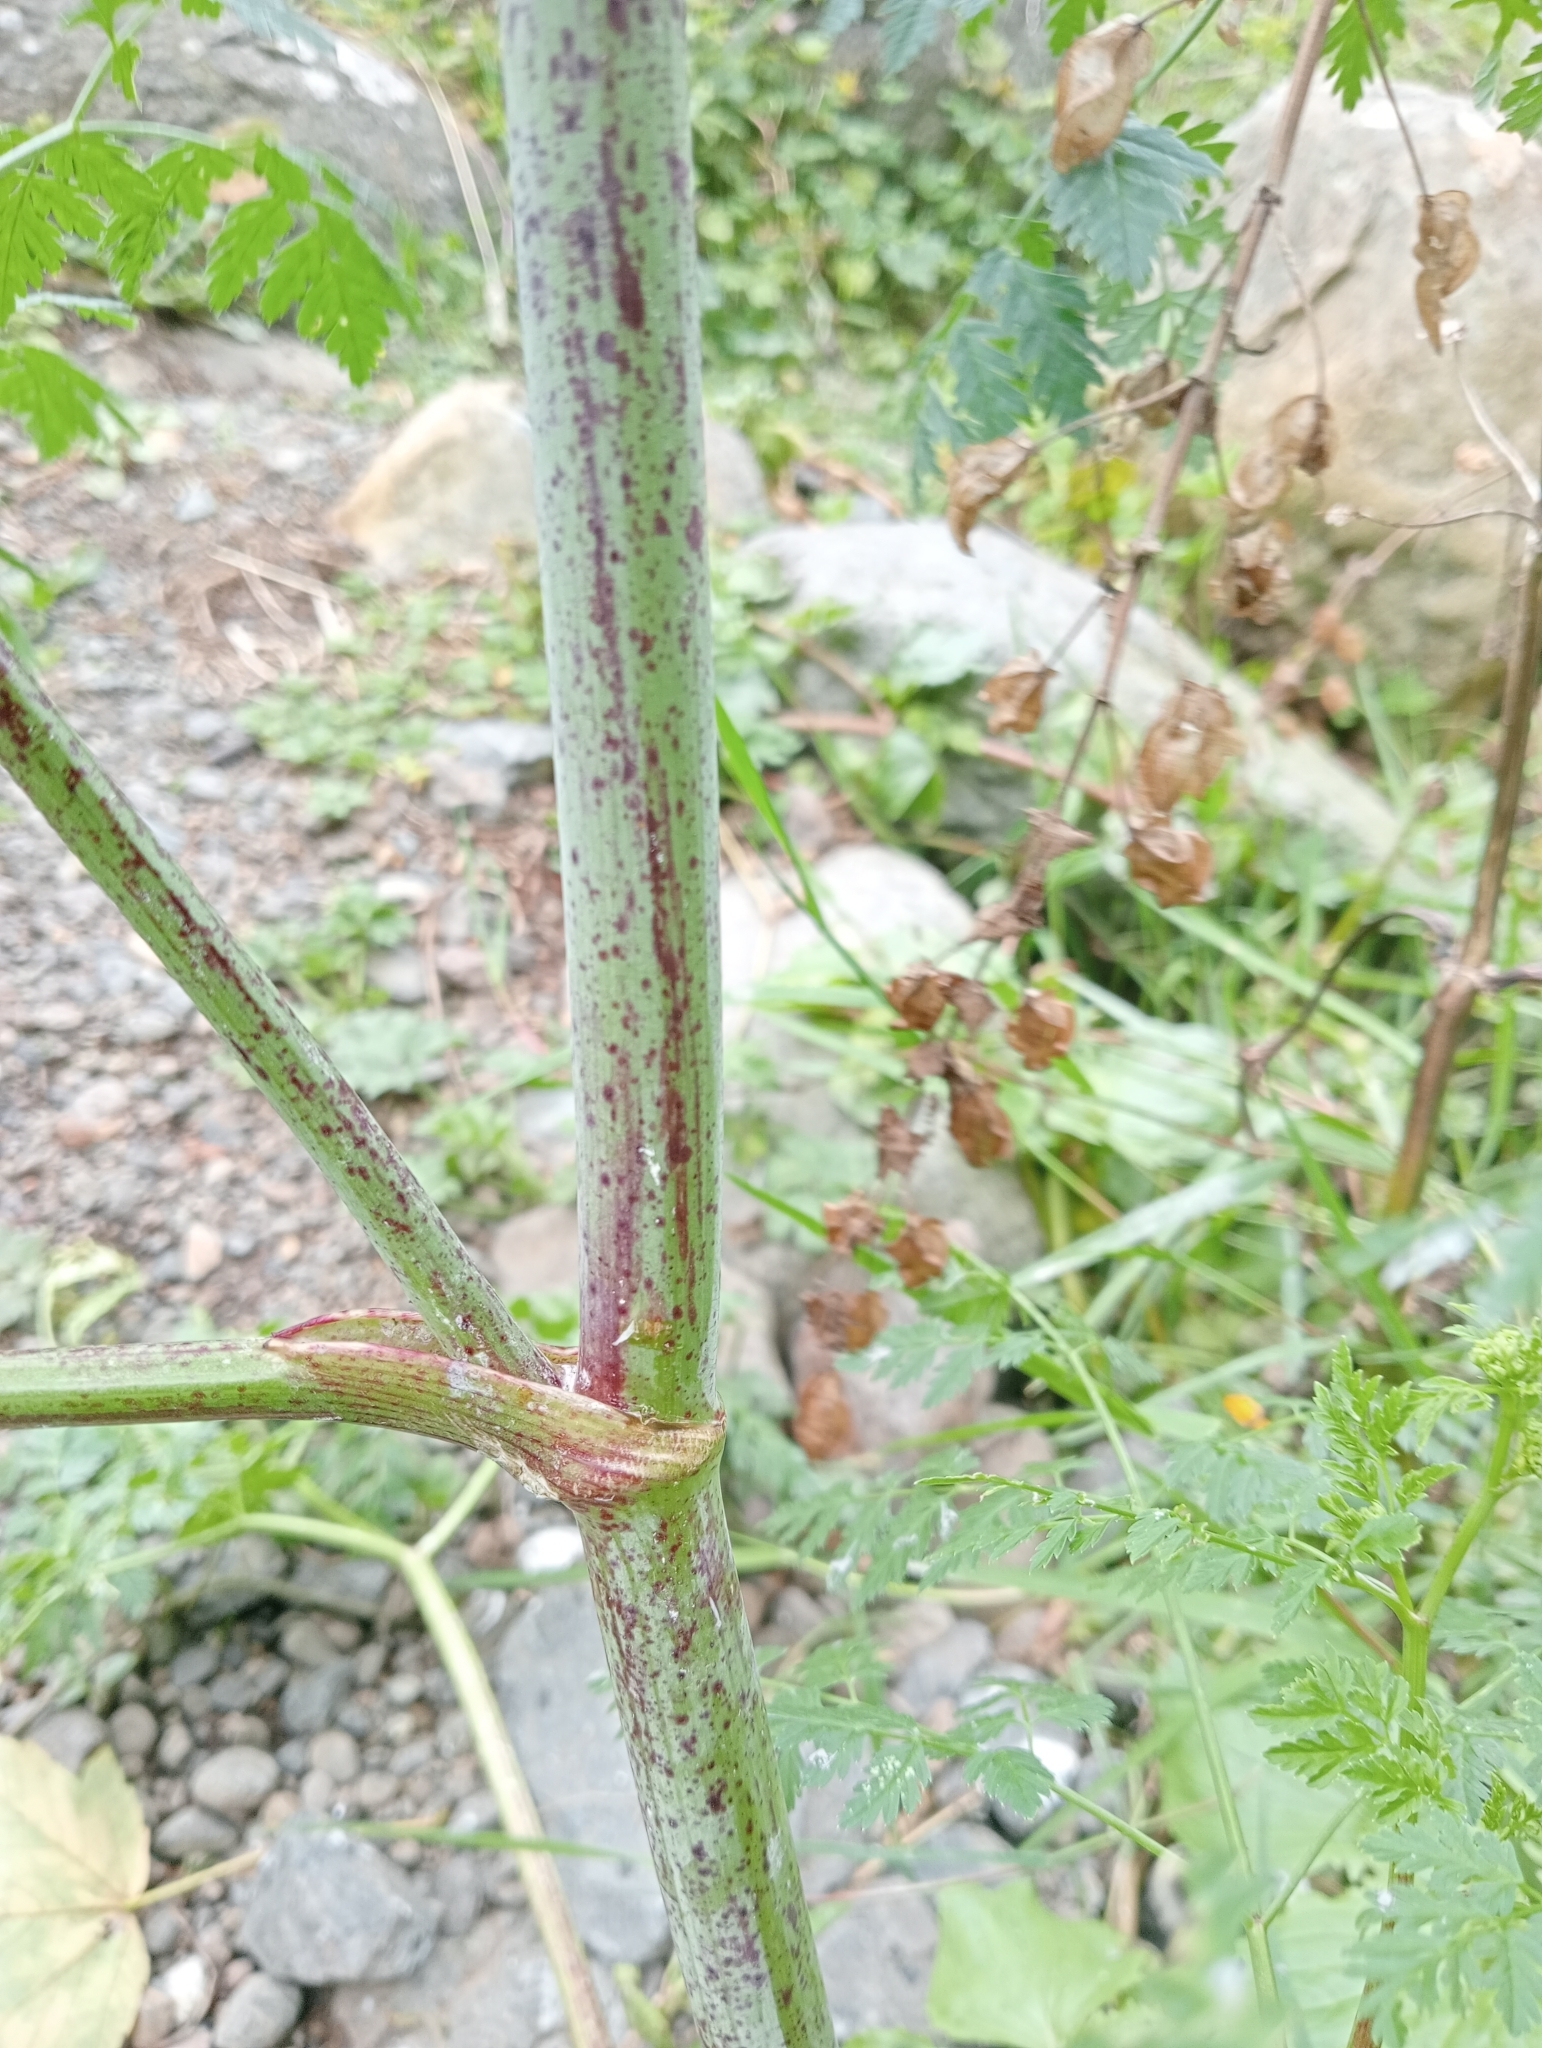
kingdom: Plantae
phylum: Tracheophyta
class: Magnoliopsida
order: Apiales
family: Apiaceae
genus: Conium
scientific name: Conium maculatum
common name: Hemlock
